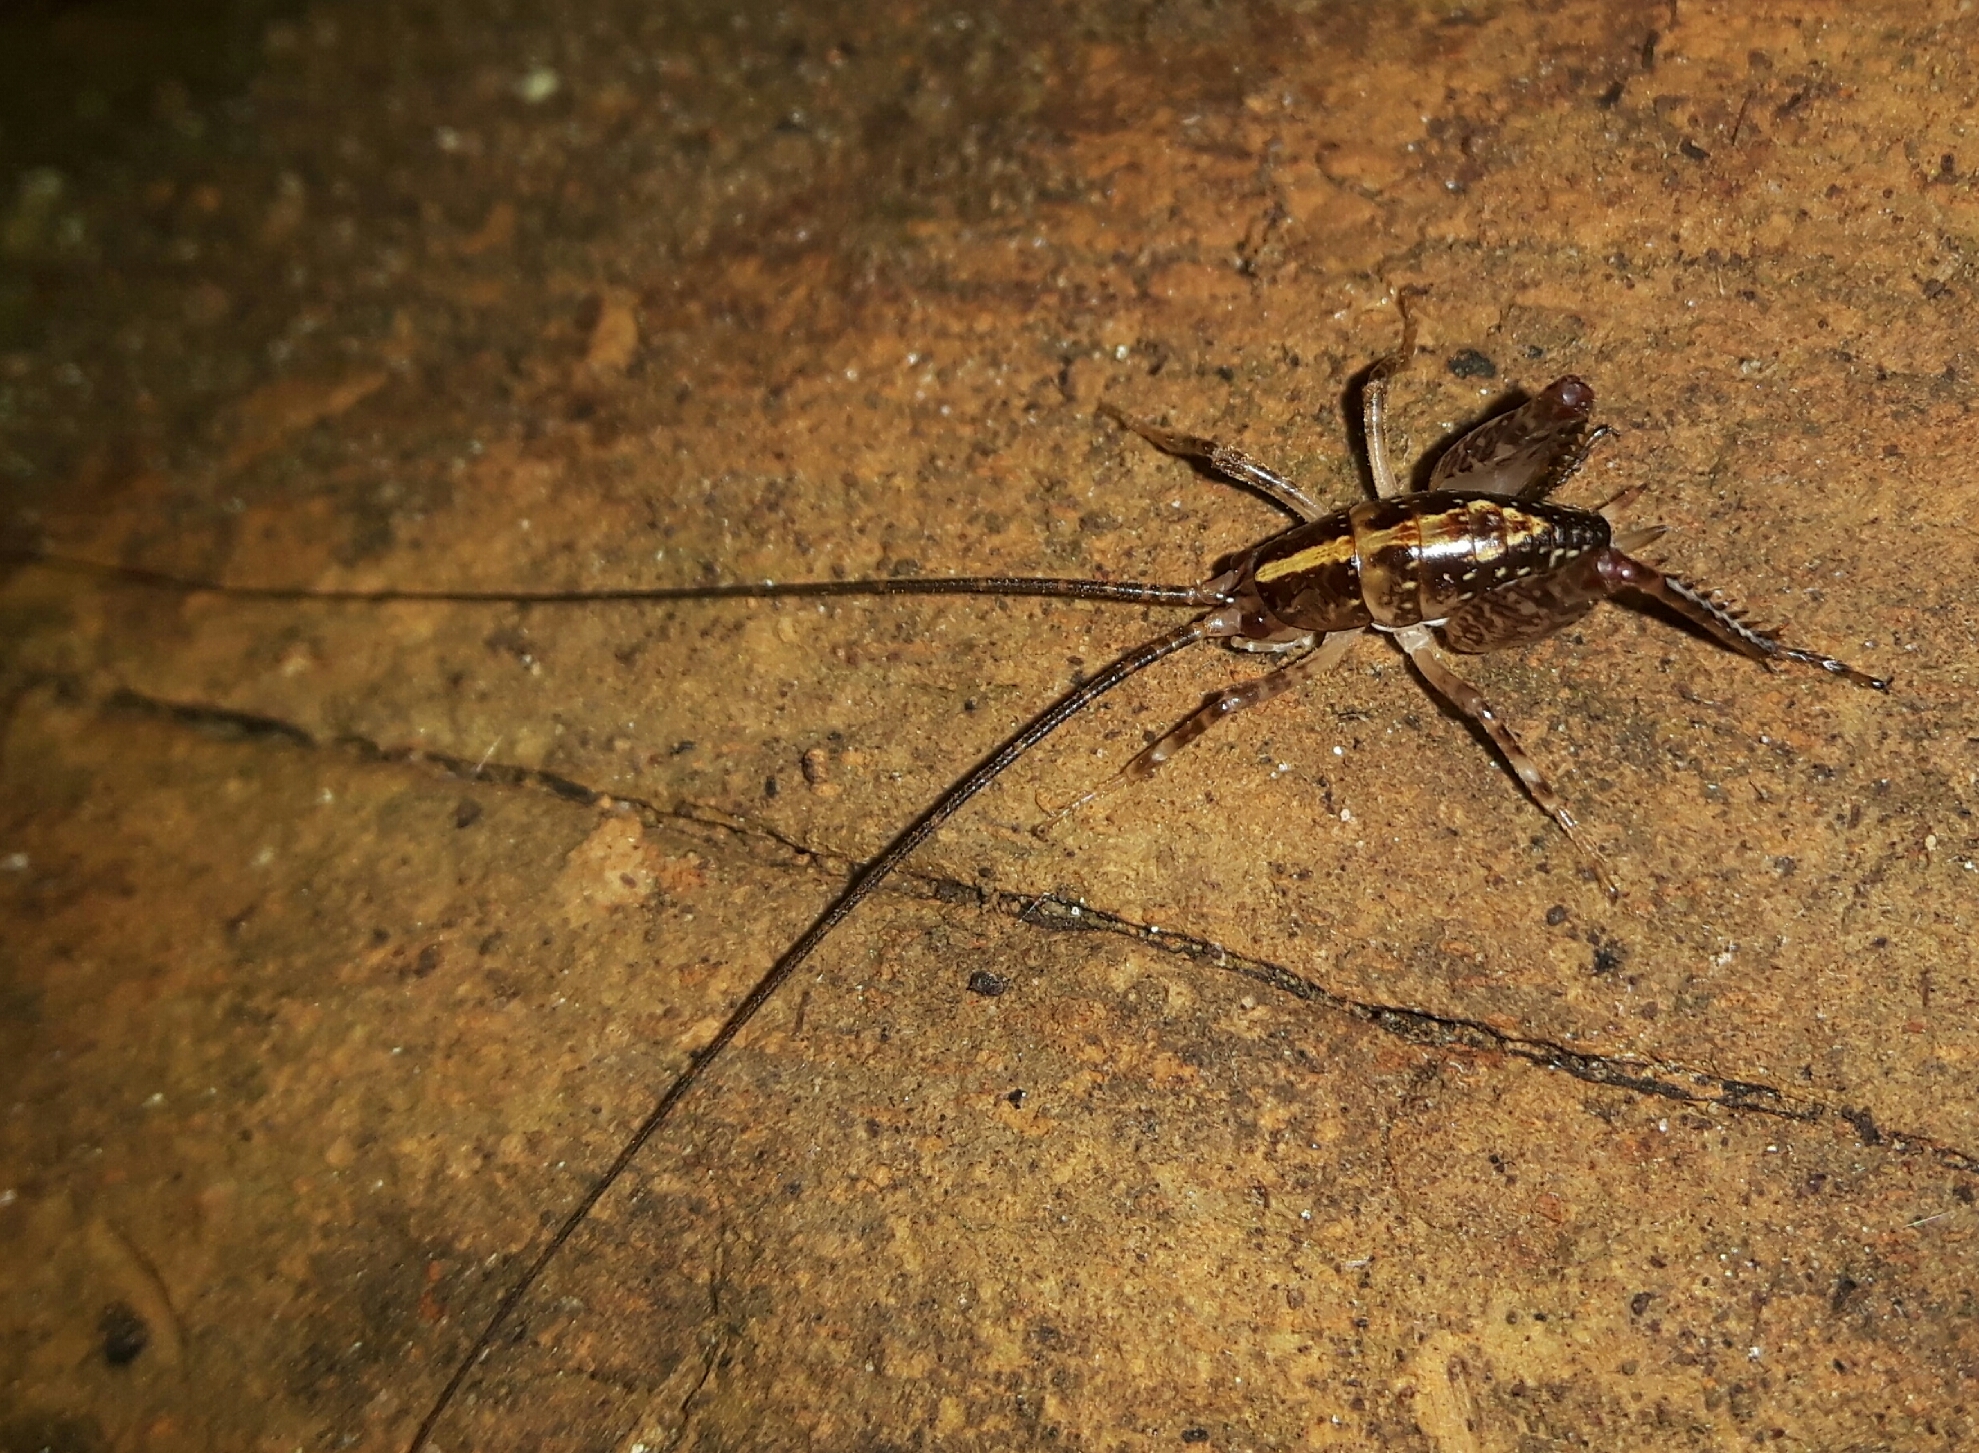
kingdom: Animalia
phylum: Arthropoda
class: Insecta
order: Orthoptera
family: Rhaphidophoridae
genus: Talitropsis
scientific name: Talitropsis sedilloti
